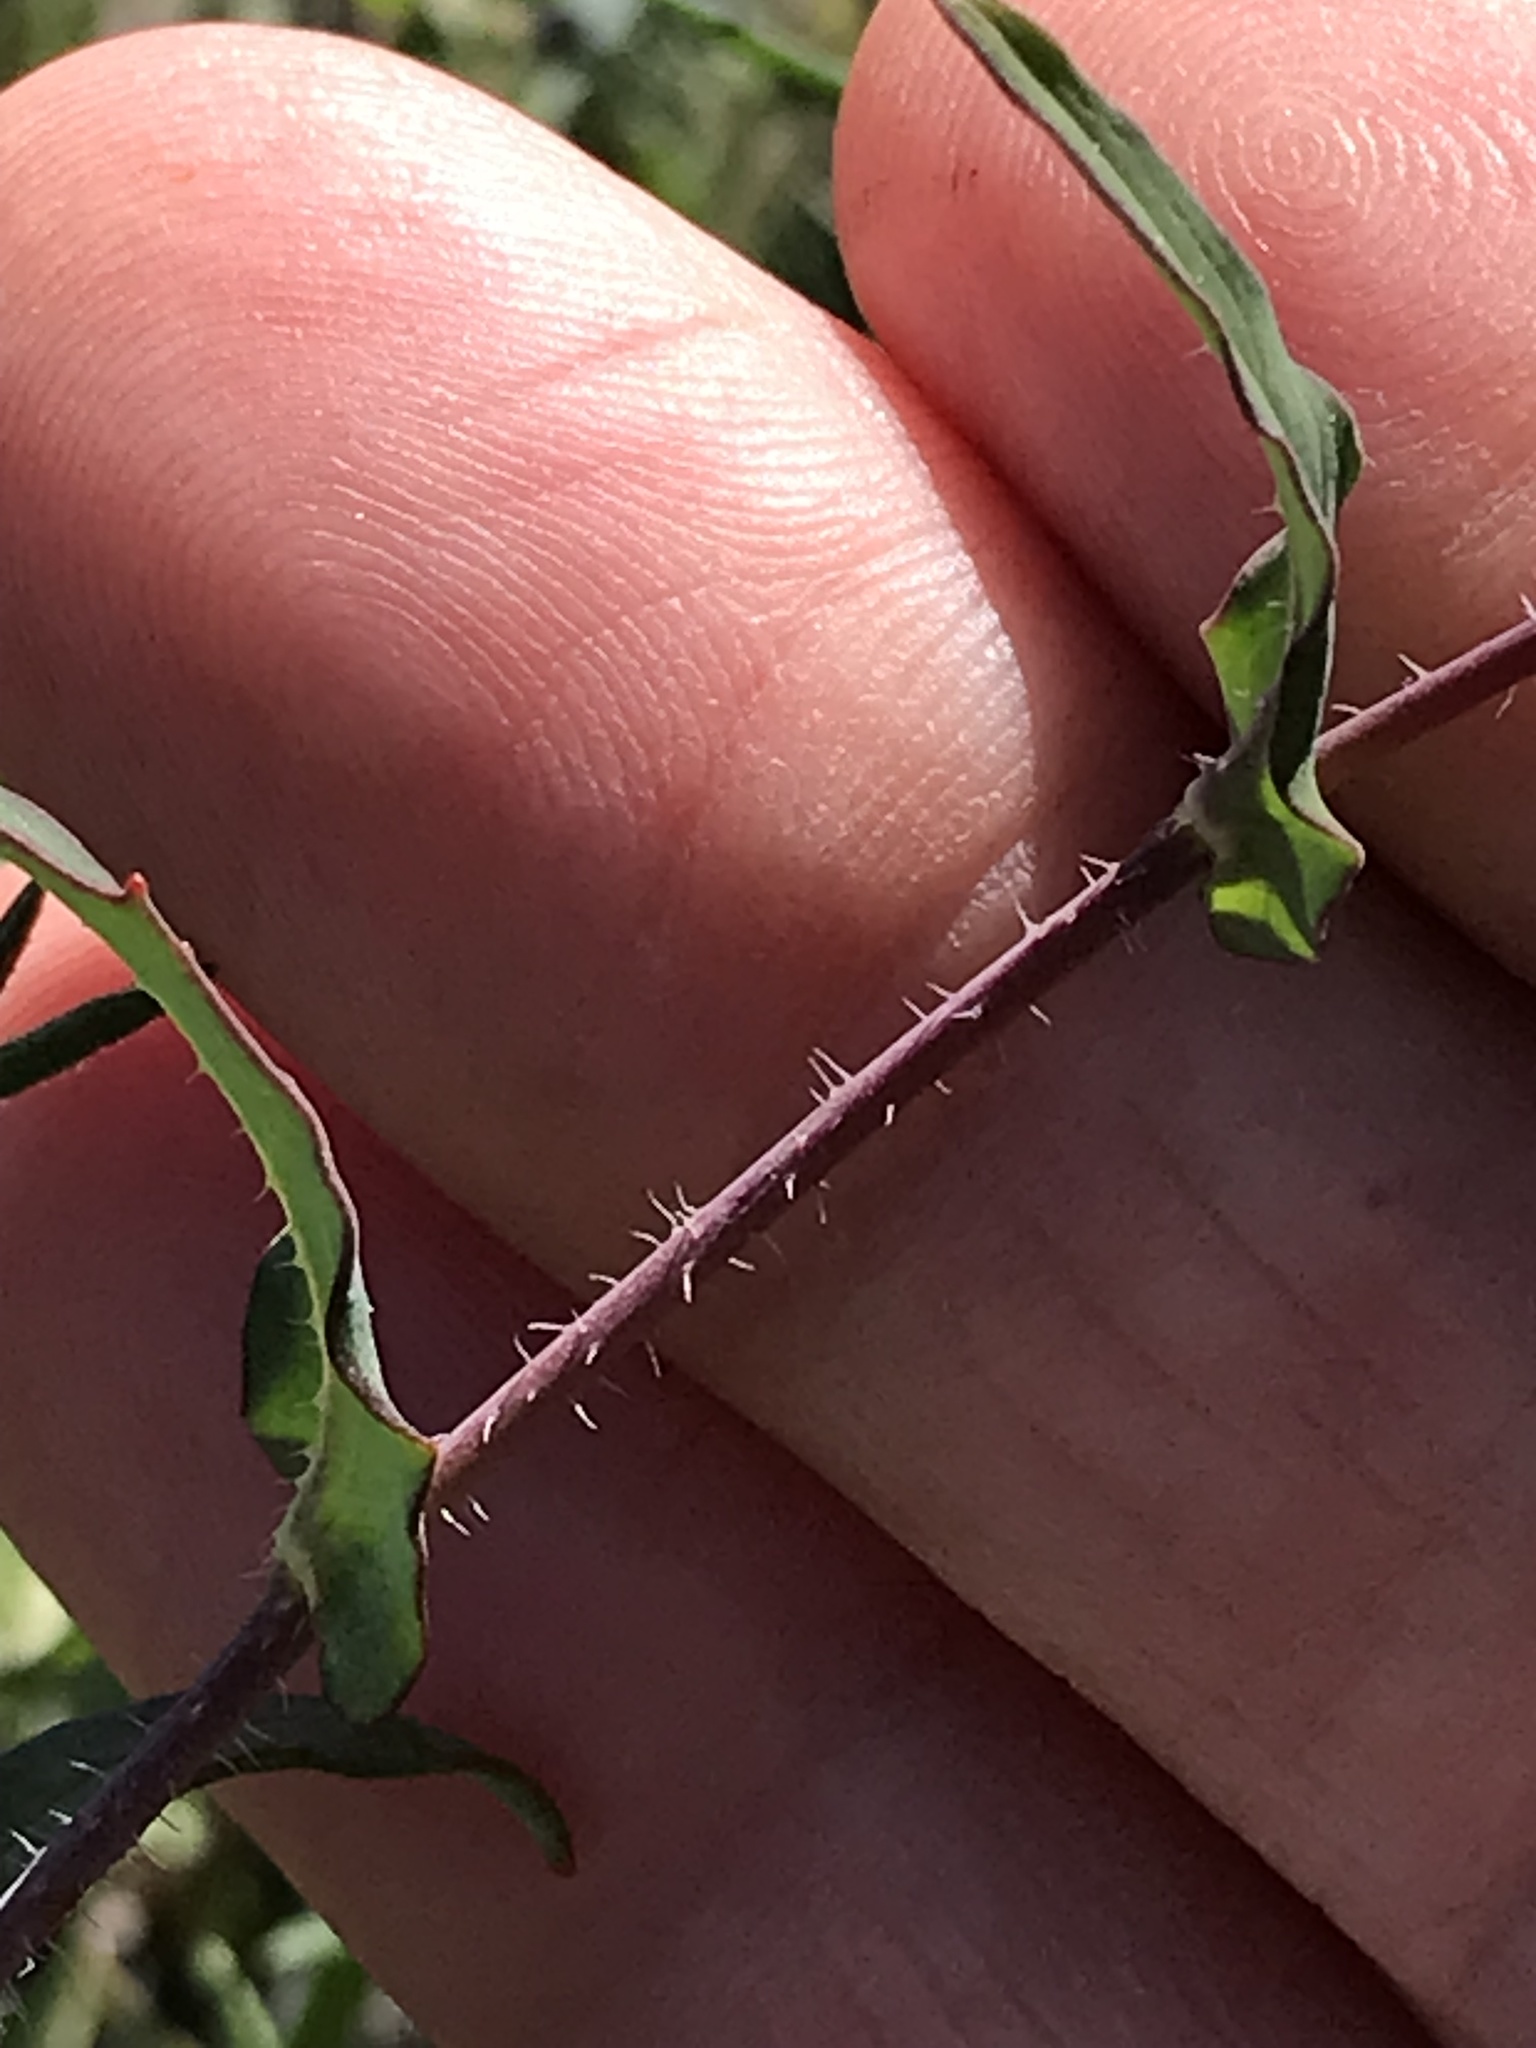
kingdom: Plantae
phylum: Tracheophyta
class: Magnoliopsida
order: Brassicales
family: Brassicaceae
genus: Streptanthus
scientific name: Streptanthus glandulosus
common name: Jewel-flower
